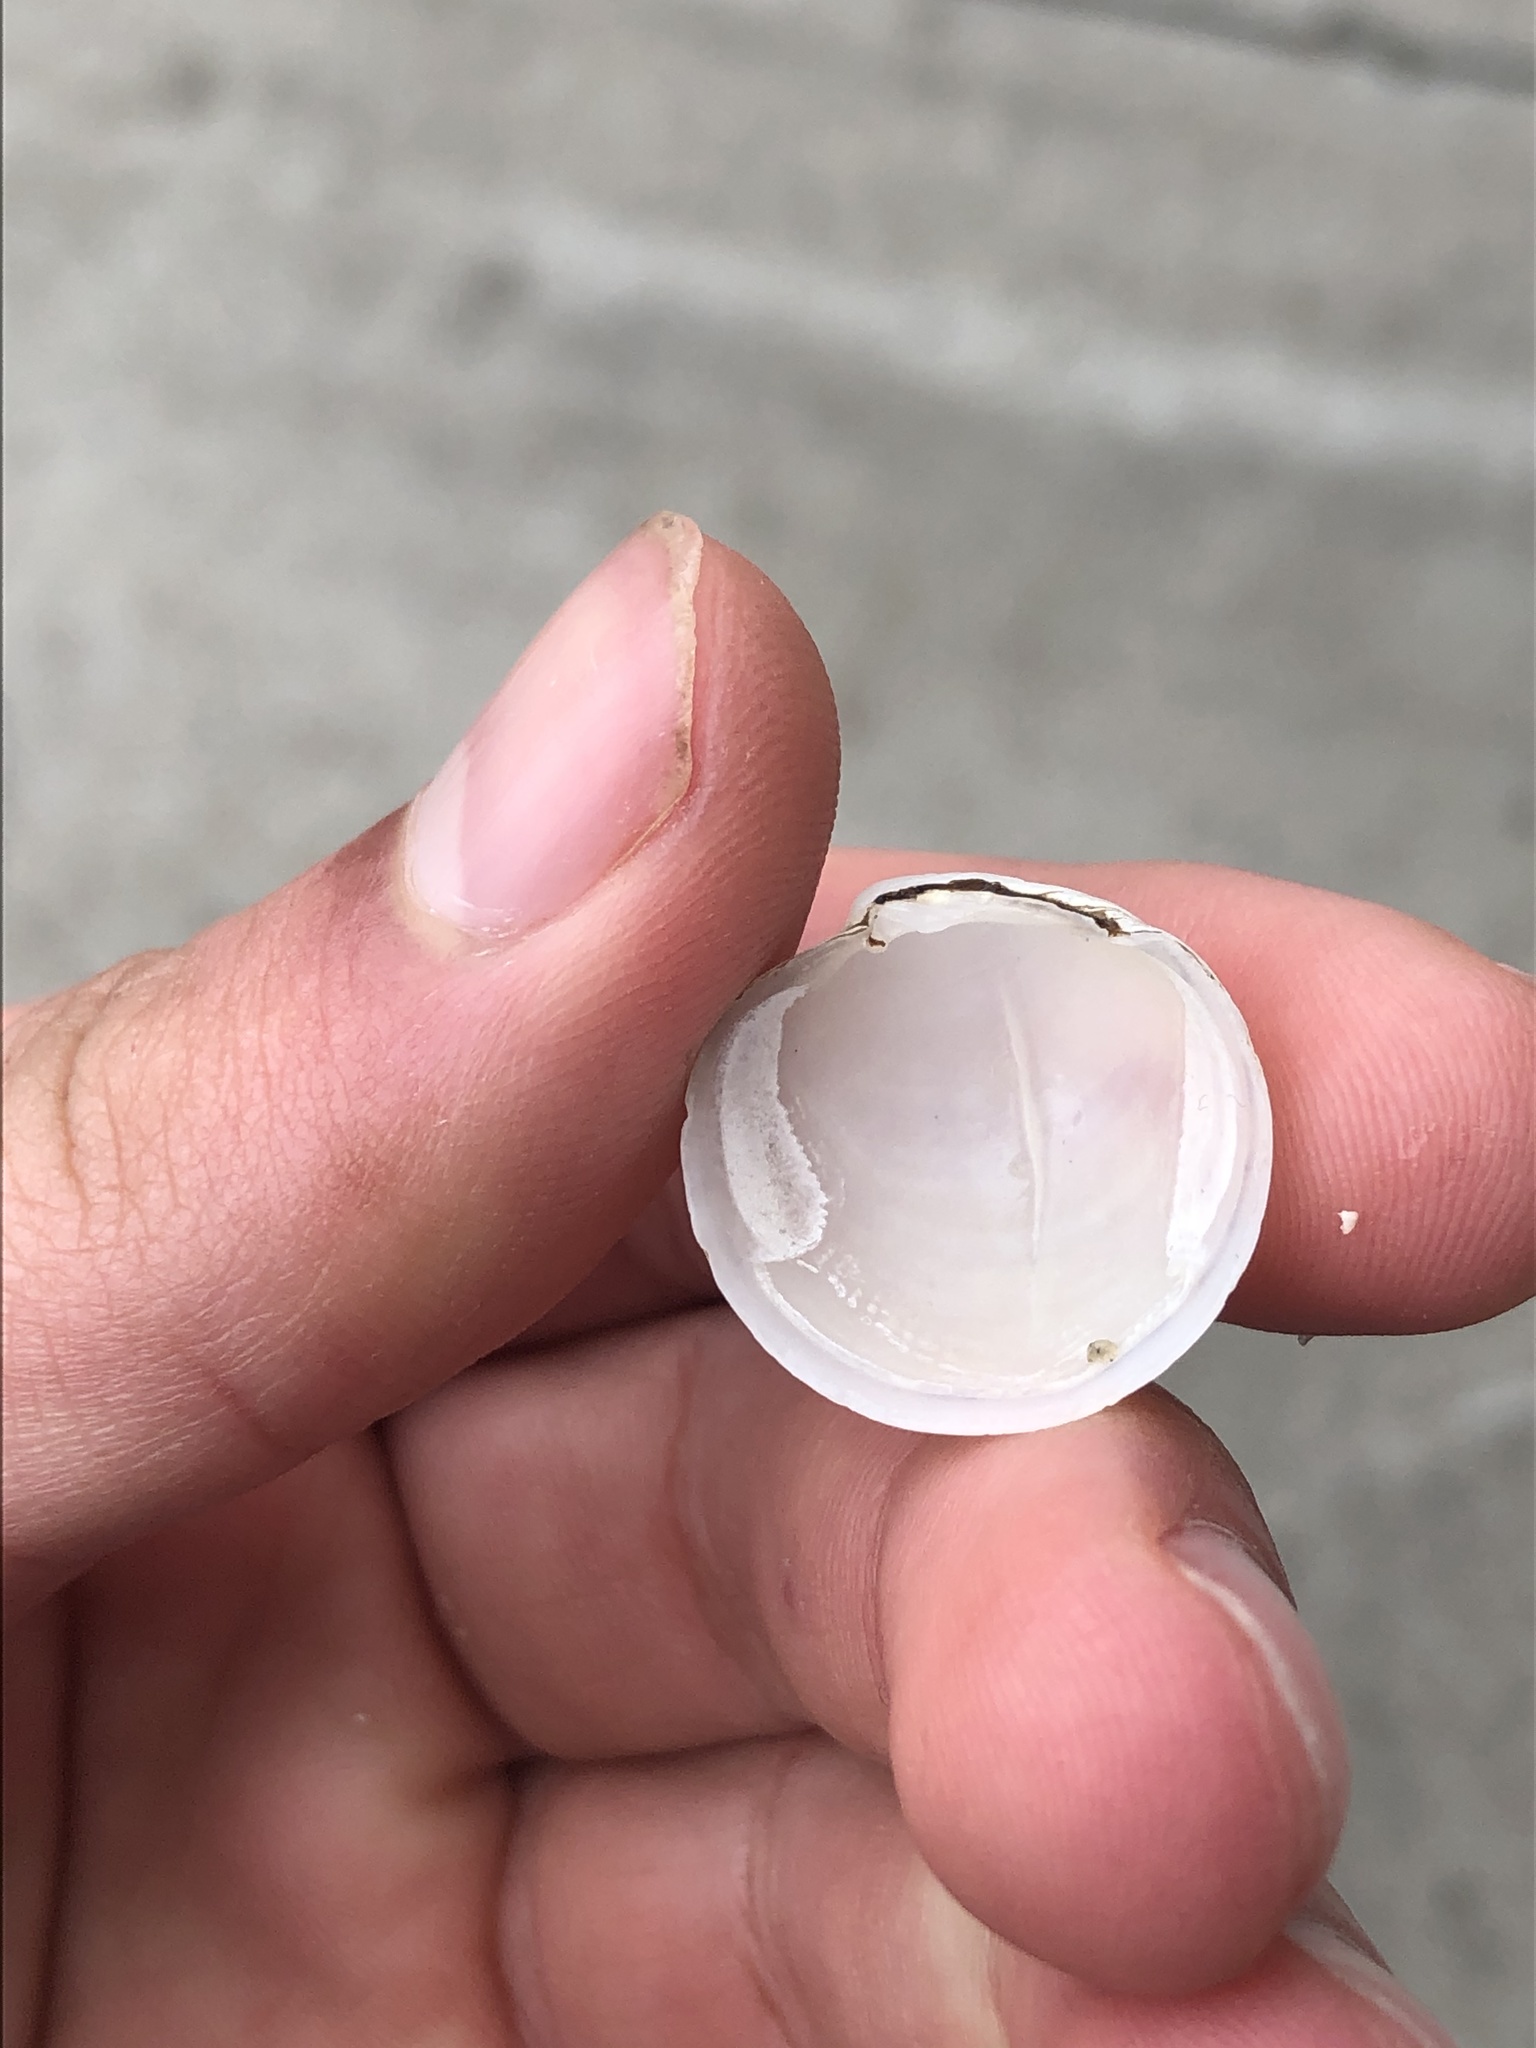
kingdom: Animalia
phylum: Mollusca
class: Bivalvia
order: Venerida
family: Ungulinidae
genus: Zemysina
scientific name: Zemysina orbella
